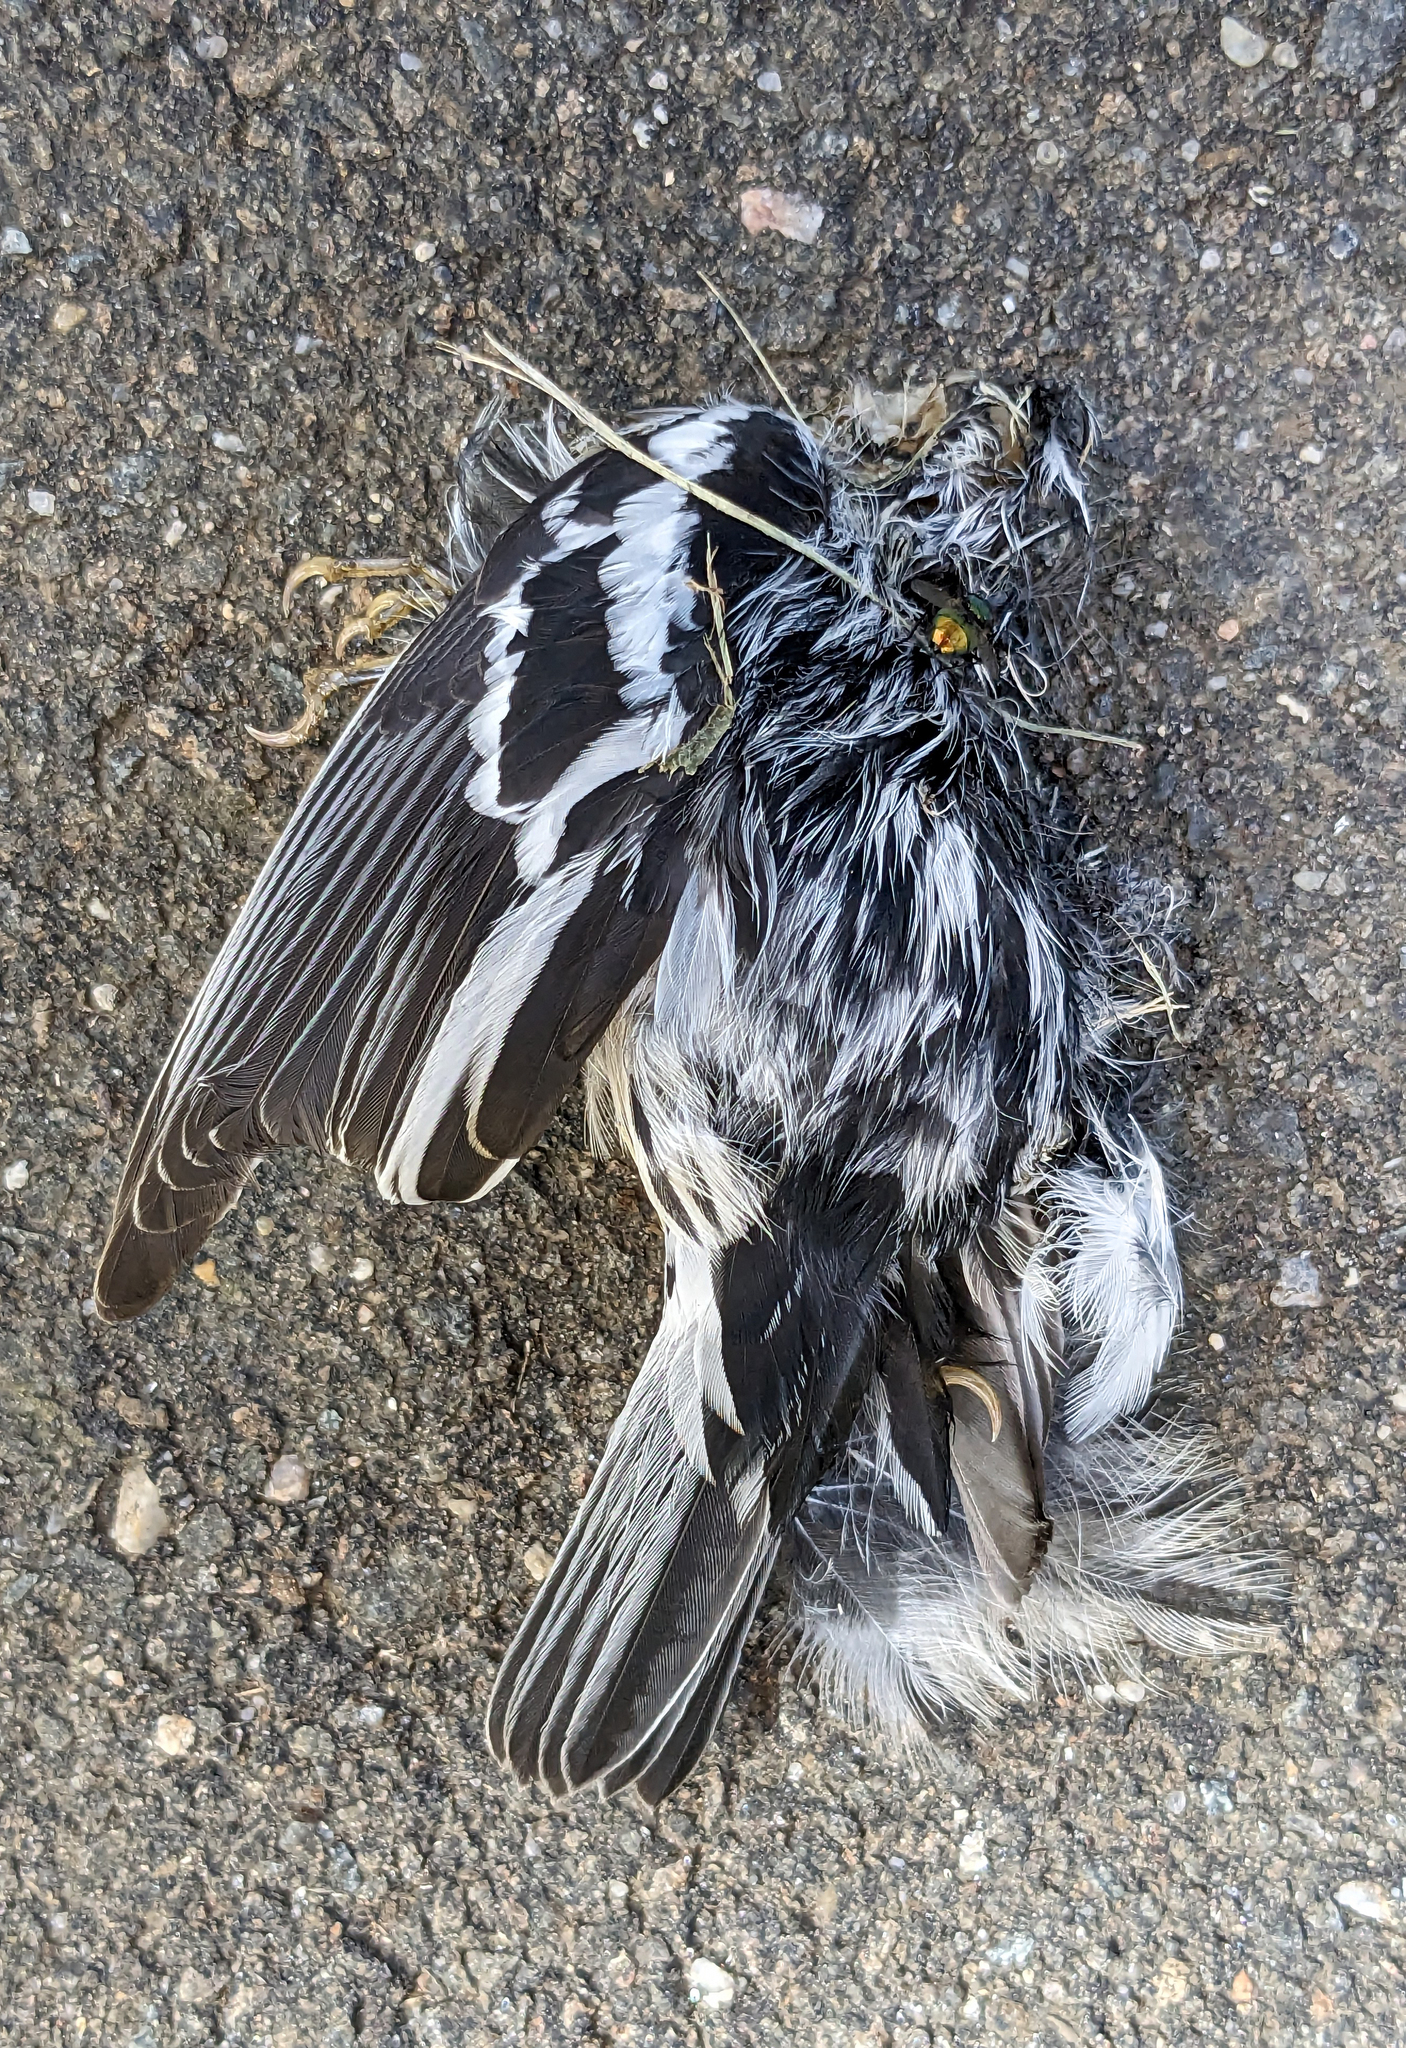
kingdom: Animalia
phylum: Chordata
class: Aves
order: Passeriformes
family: Parulidae
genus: Mniotilta
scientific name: Mniotilta varia
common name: Black-and-white warbler
